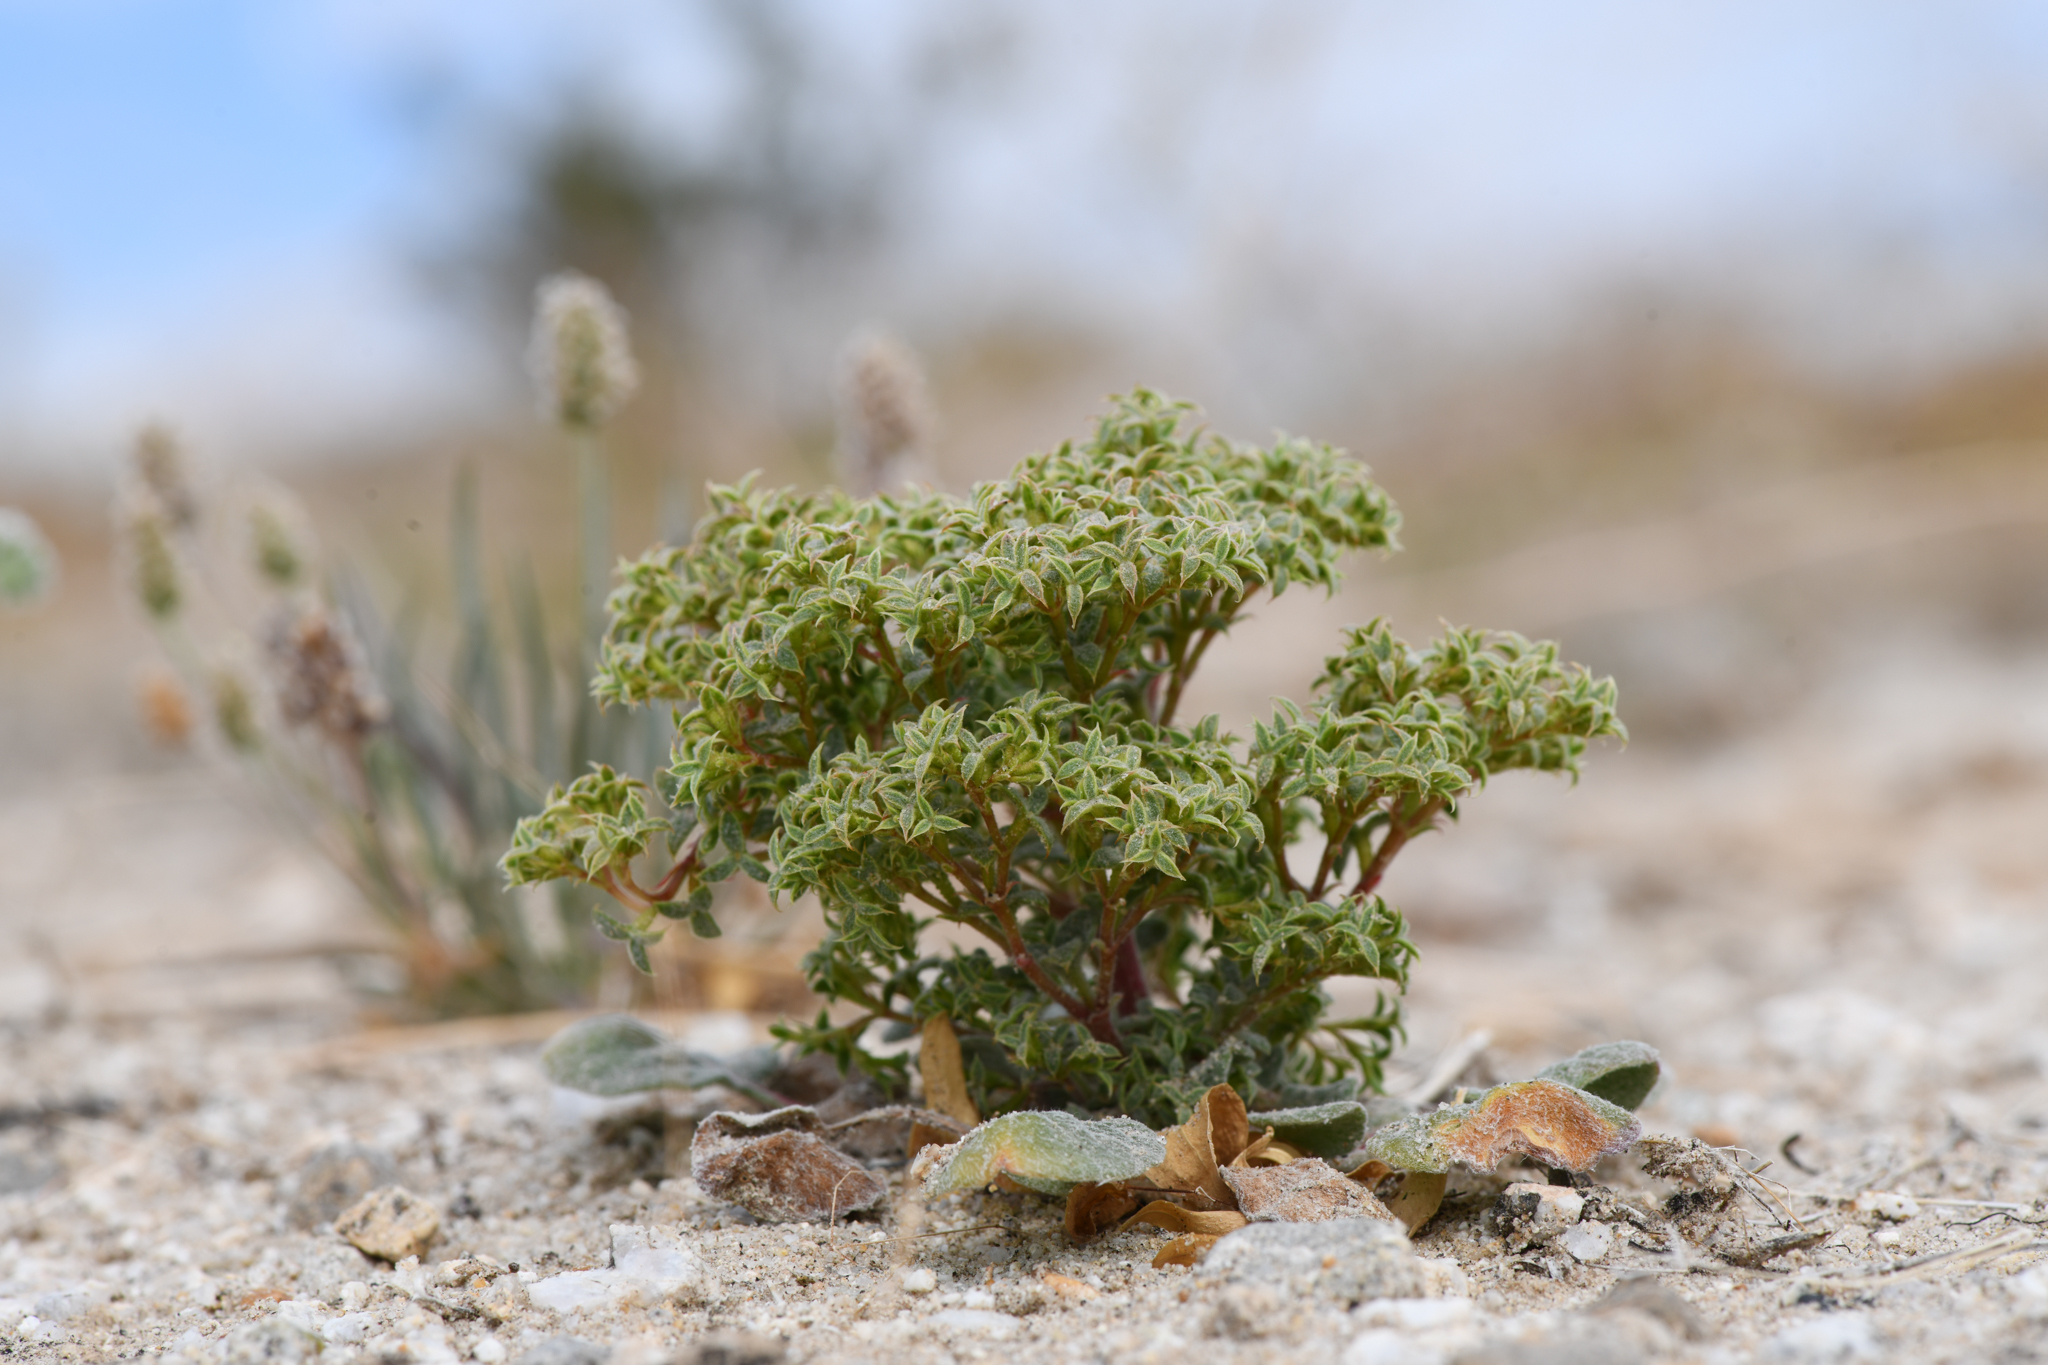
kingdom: Plantae
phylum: Tracheophyta
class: Magnoliopsida
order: Caryophyllales
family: Polygonaceae
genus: Chorizanthe
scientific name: Chorizanthe corrugata
